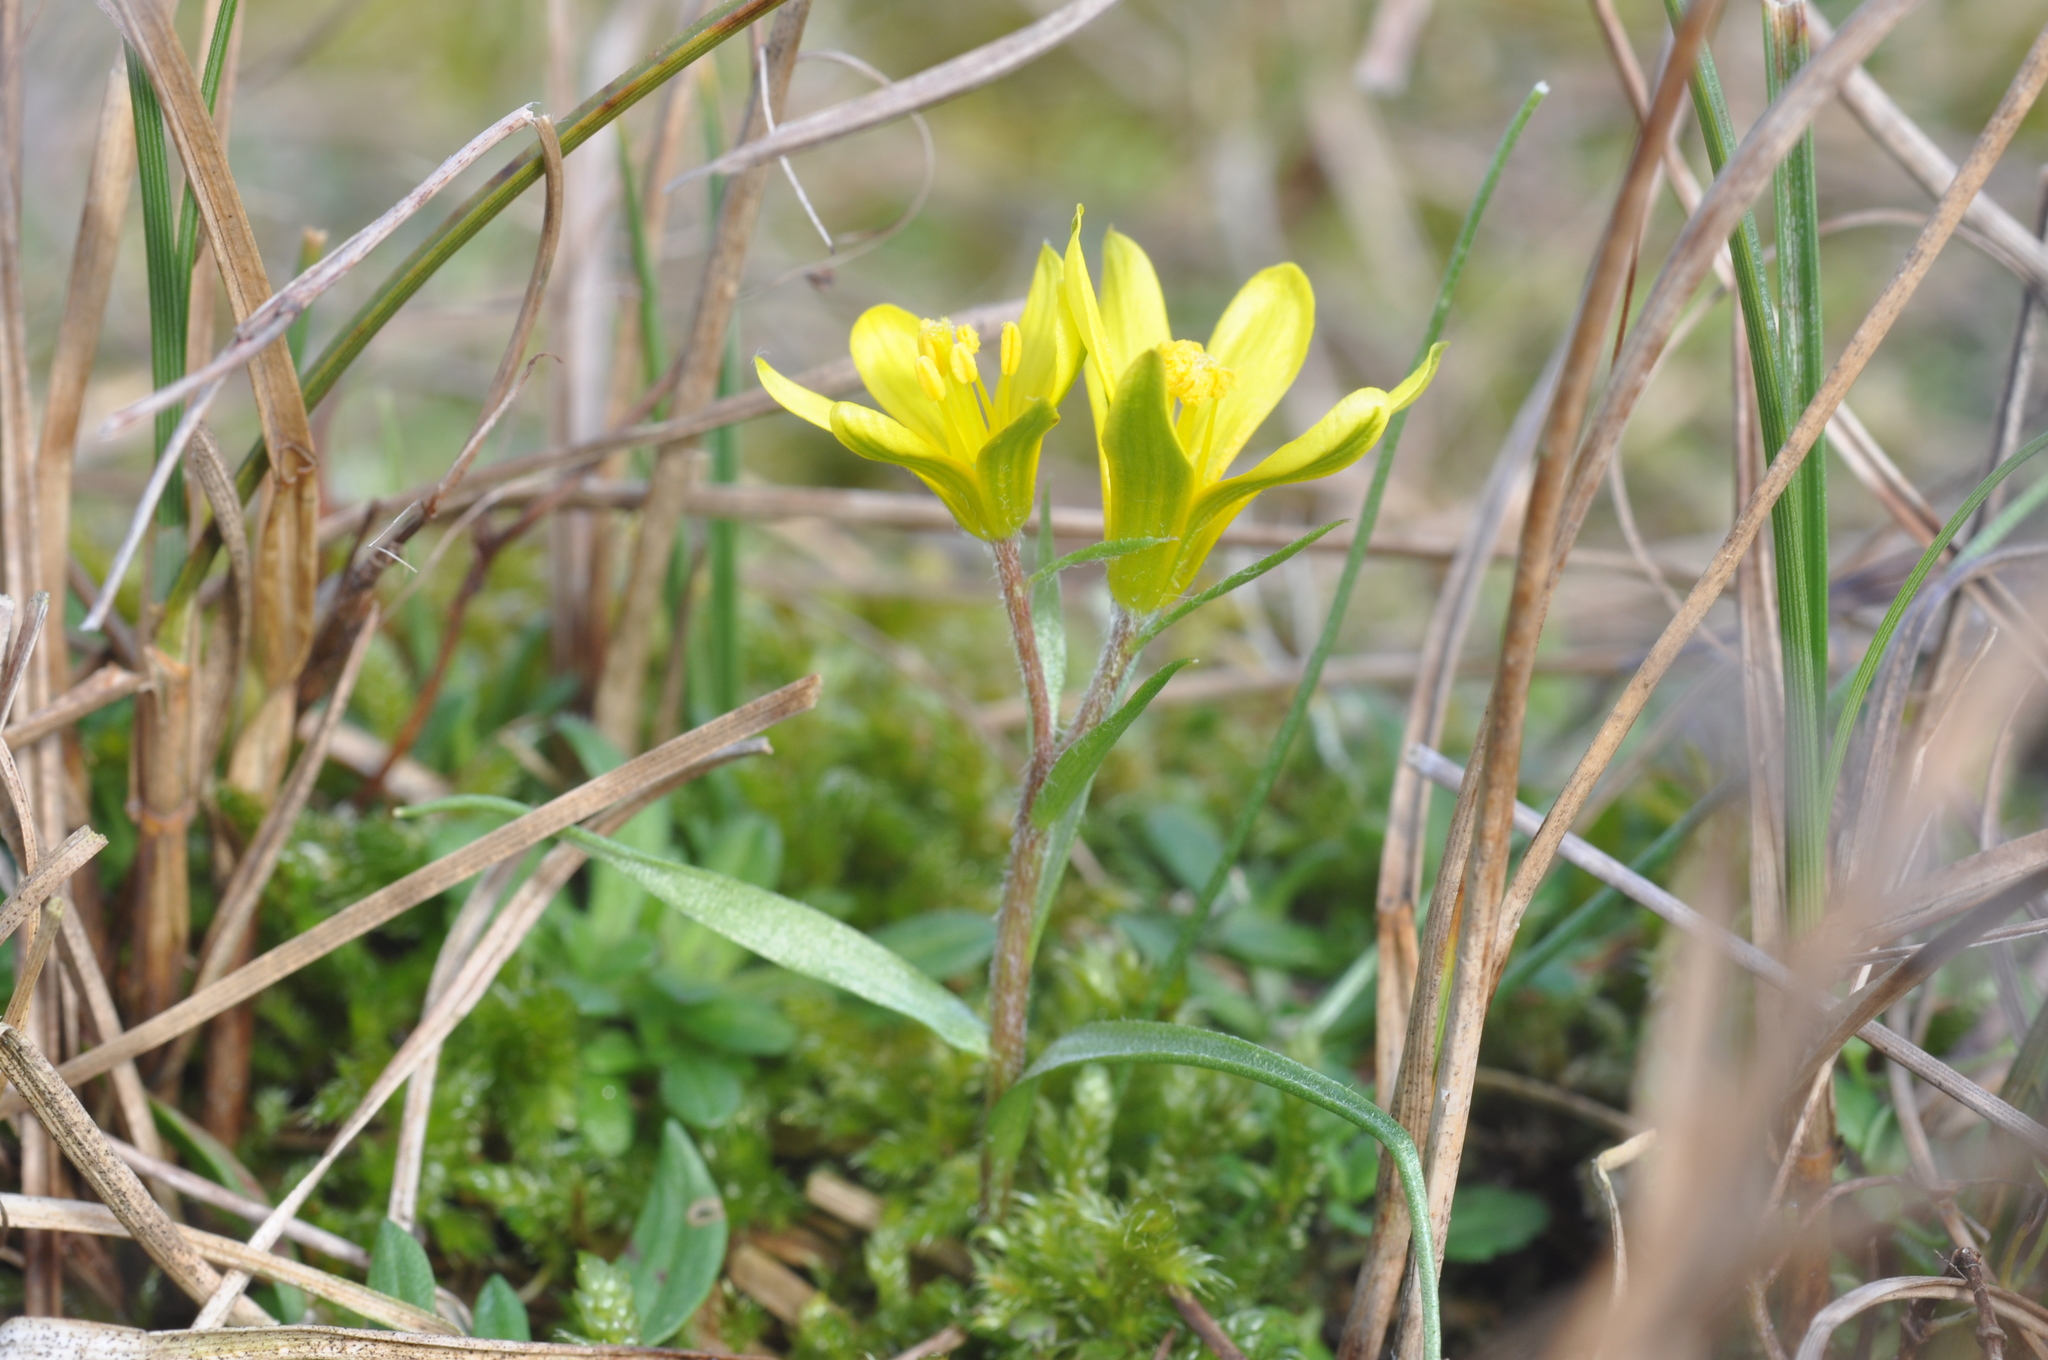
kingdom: Plantae
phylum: Tracheophyta
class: Liliopsida
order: Liliales
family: Liliaceae
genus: Gagea
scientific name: Gagea bohemica
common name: Early star-of-bethlehem
